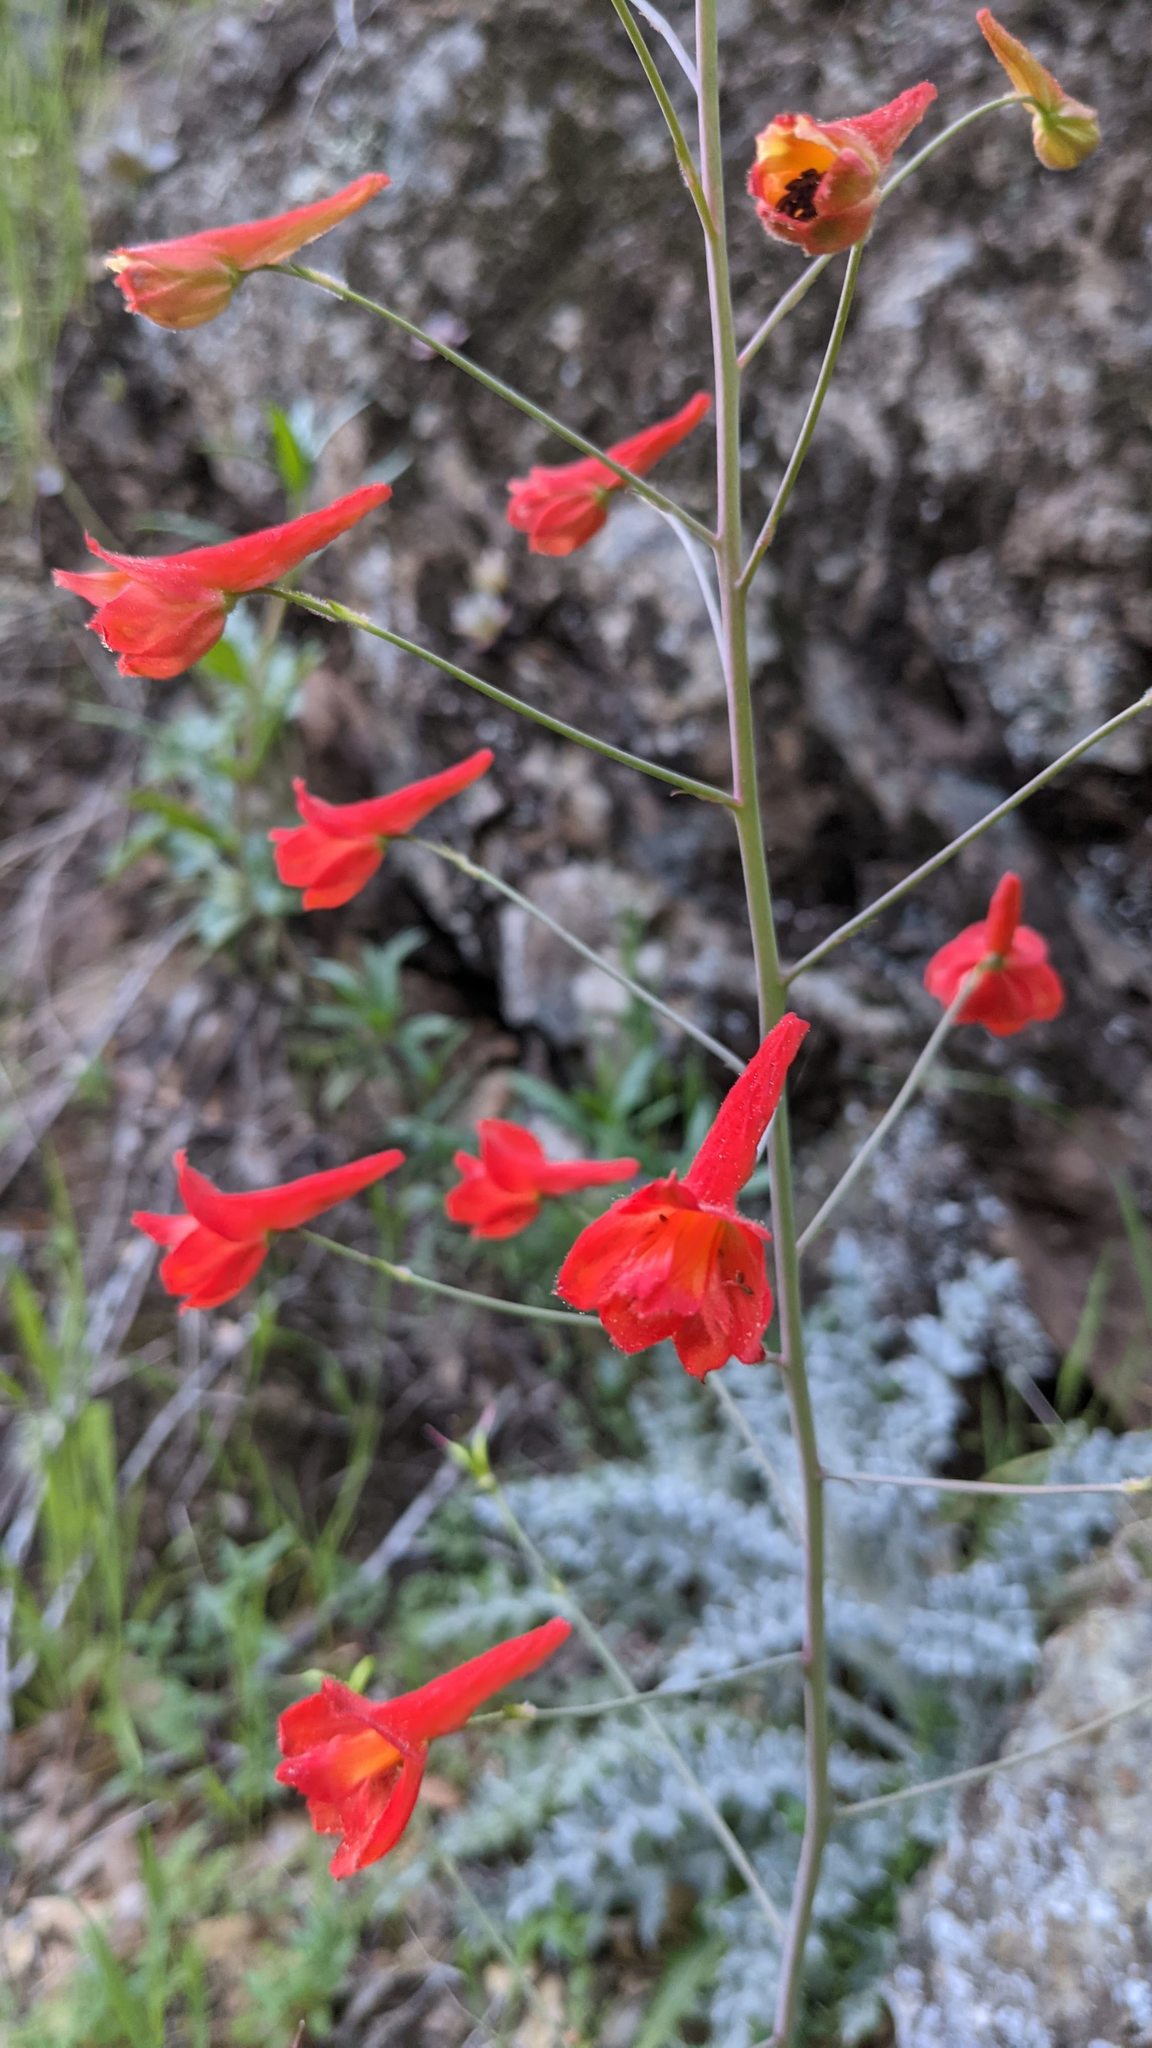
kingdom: Plantae
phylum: Tracheophyta
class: Magnoliopsida
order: Ranunculales
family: Ranunculaceae
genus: Delphinium
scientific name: Delphinium nudicaule
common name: Red larkspur
